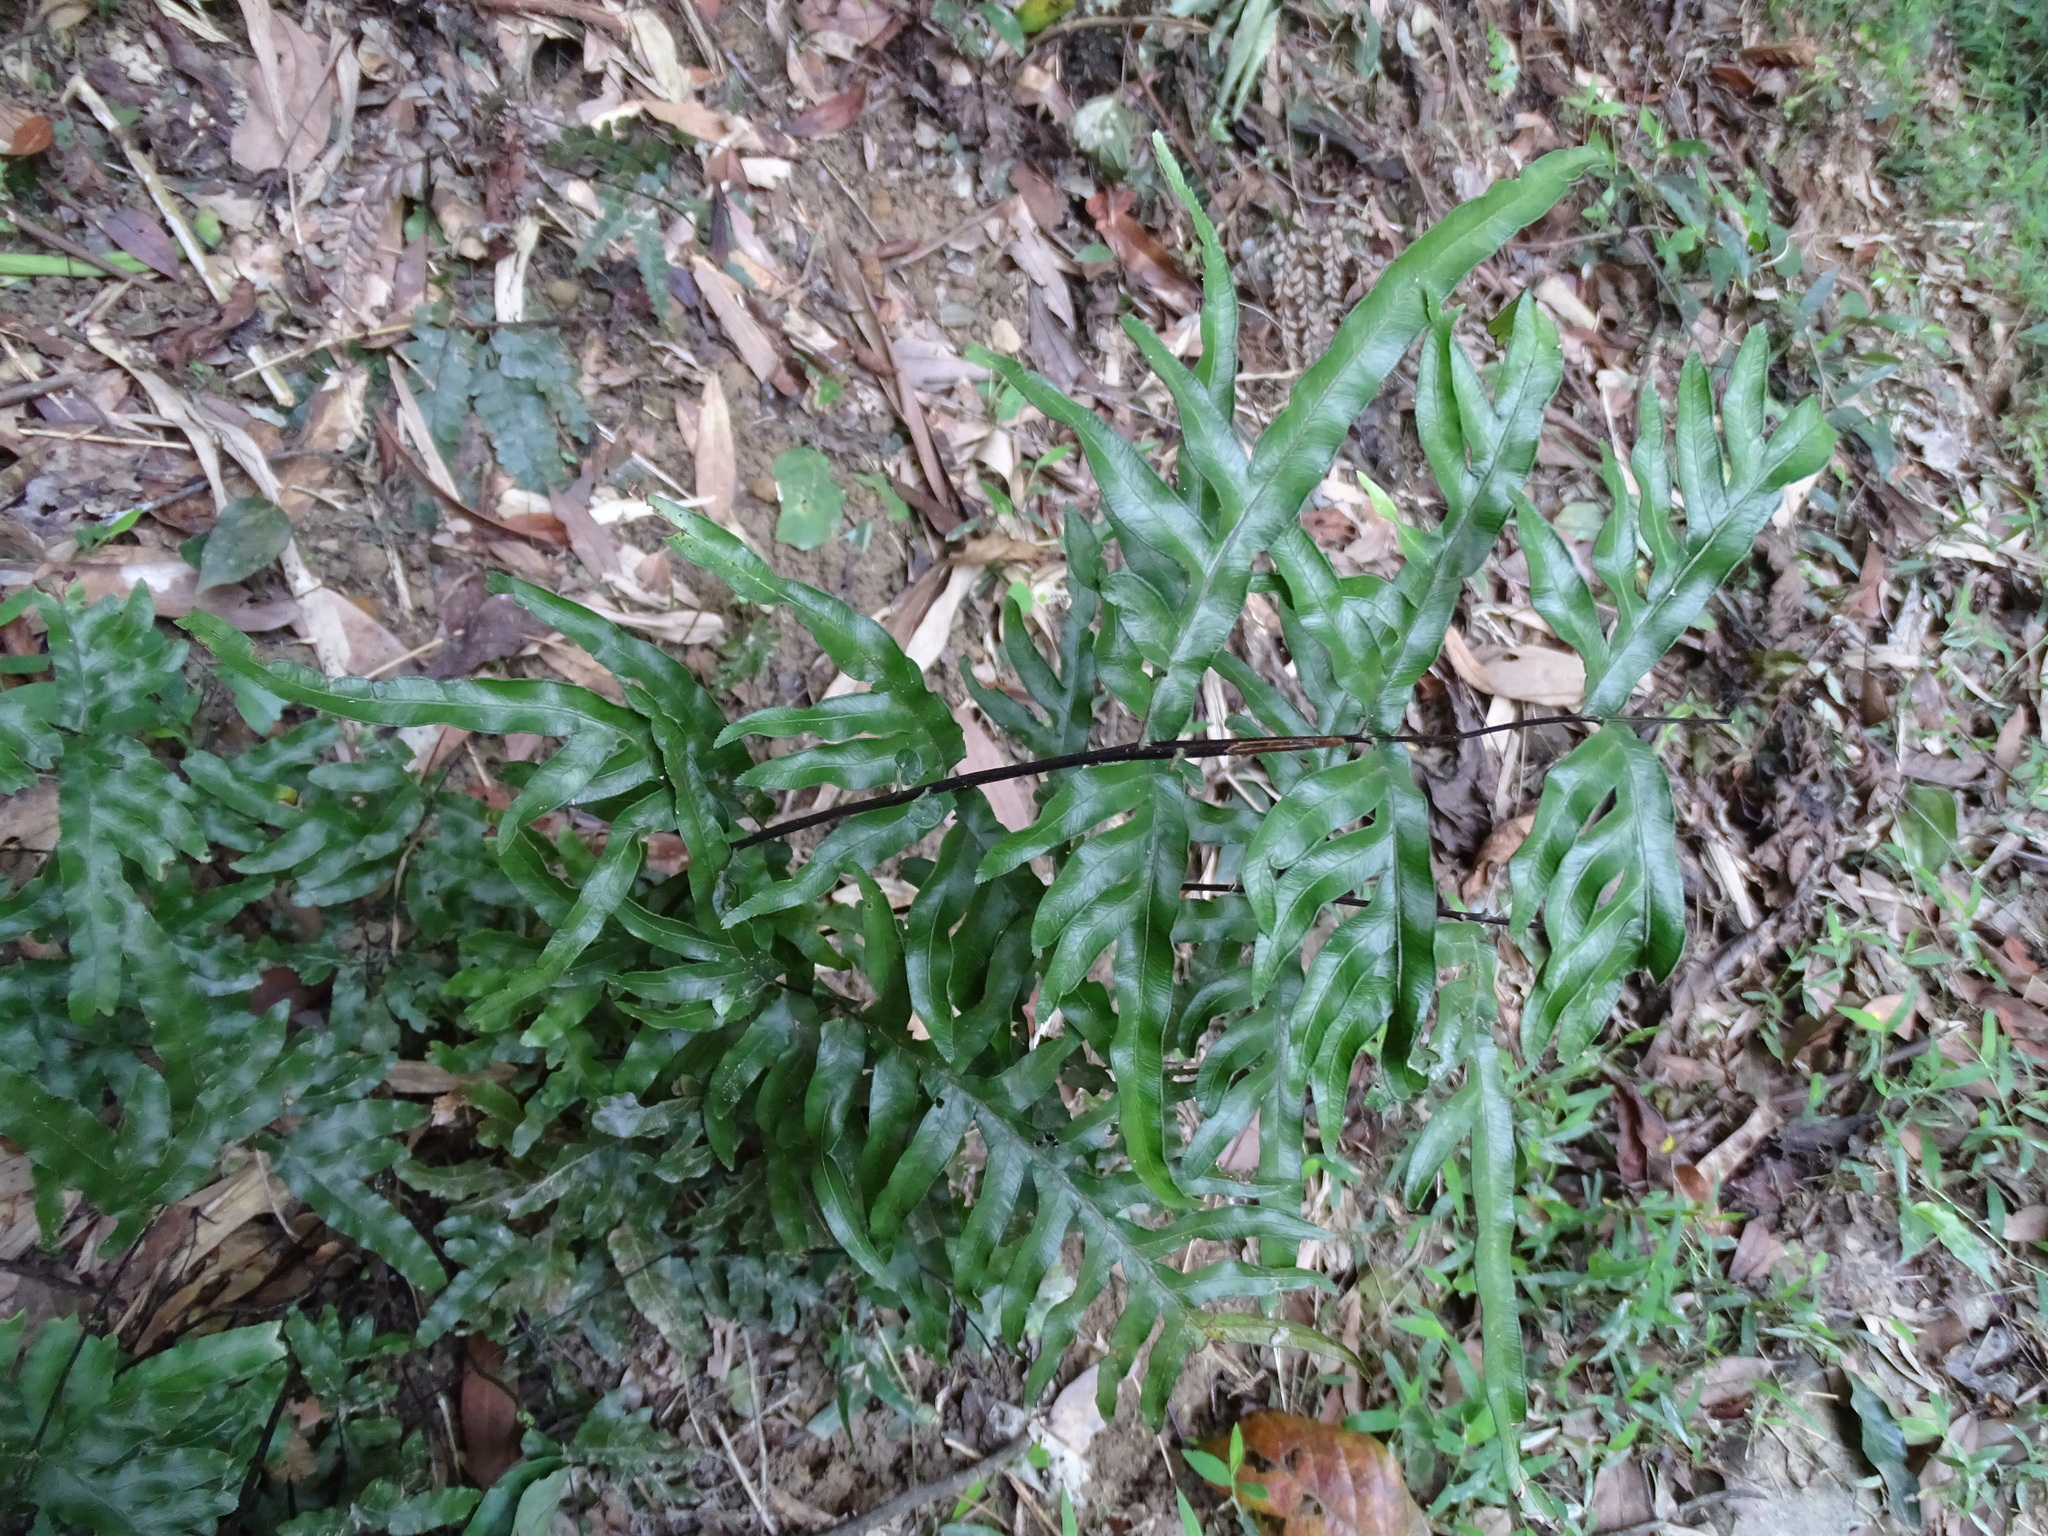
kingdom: Plantae
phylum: Tracheophyta
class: Polypodiopsida
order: Polypodiales
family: Pteridaceae
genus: Pteris
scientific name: Pteris semipinnata
